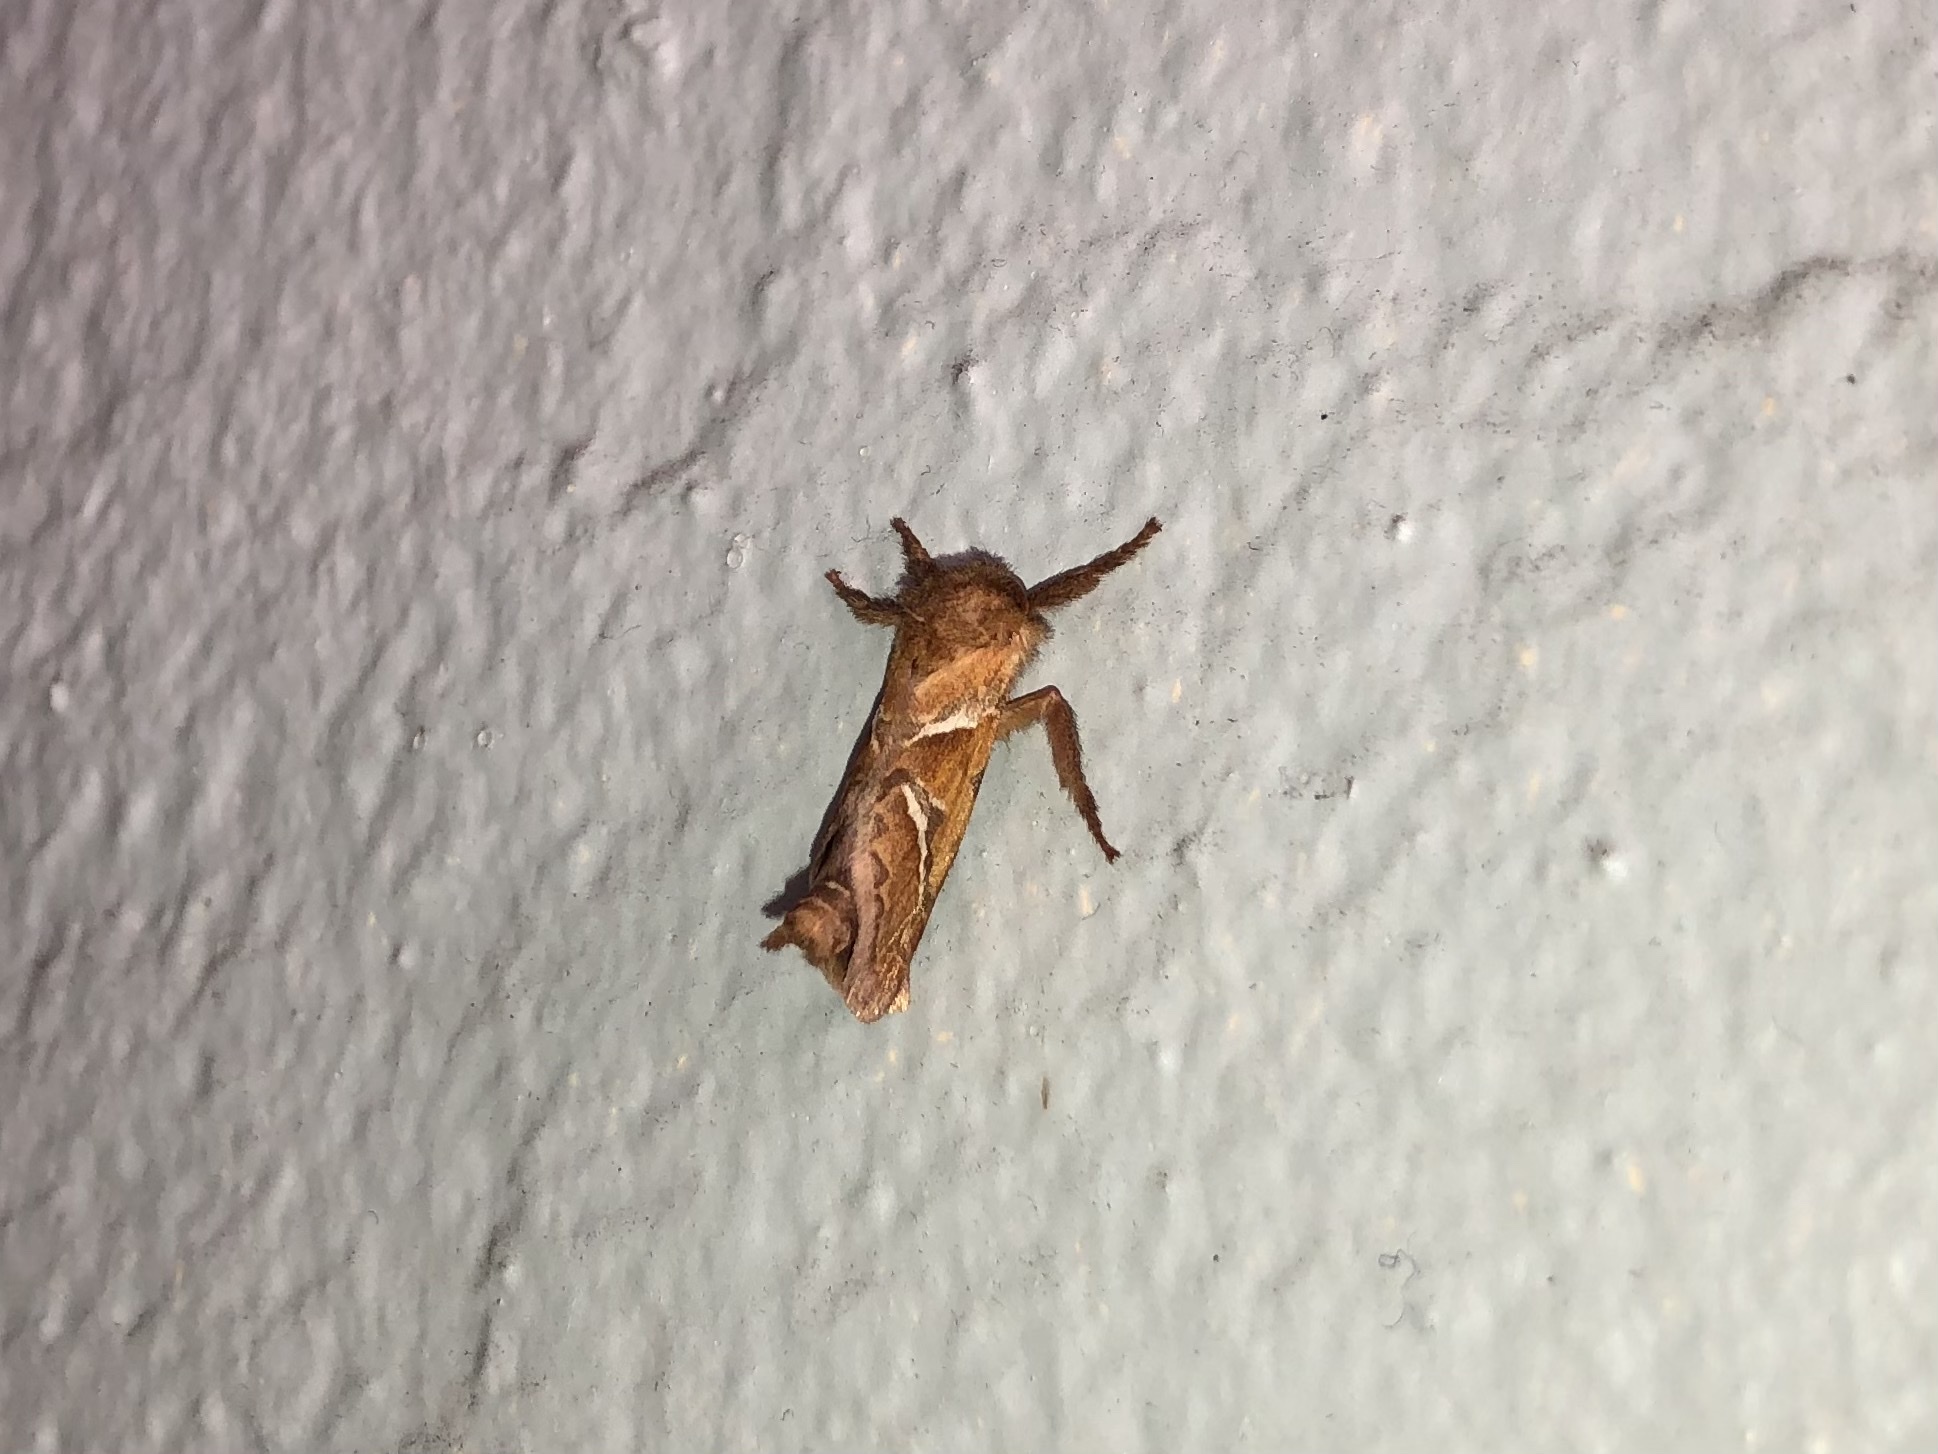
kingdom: Animalia
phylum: Arthropoda
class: Insecta
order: Lepidoptera
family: Hepialidae
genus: Triodia
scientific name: Triodia sylvina
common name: Orange swift
